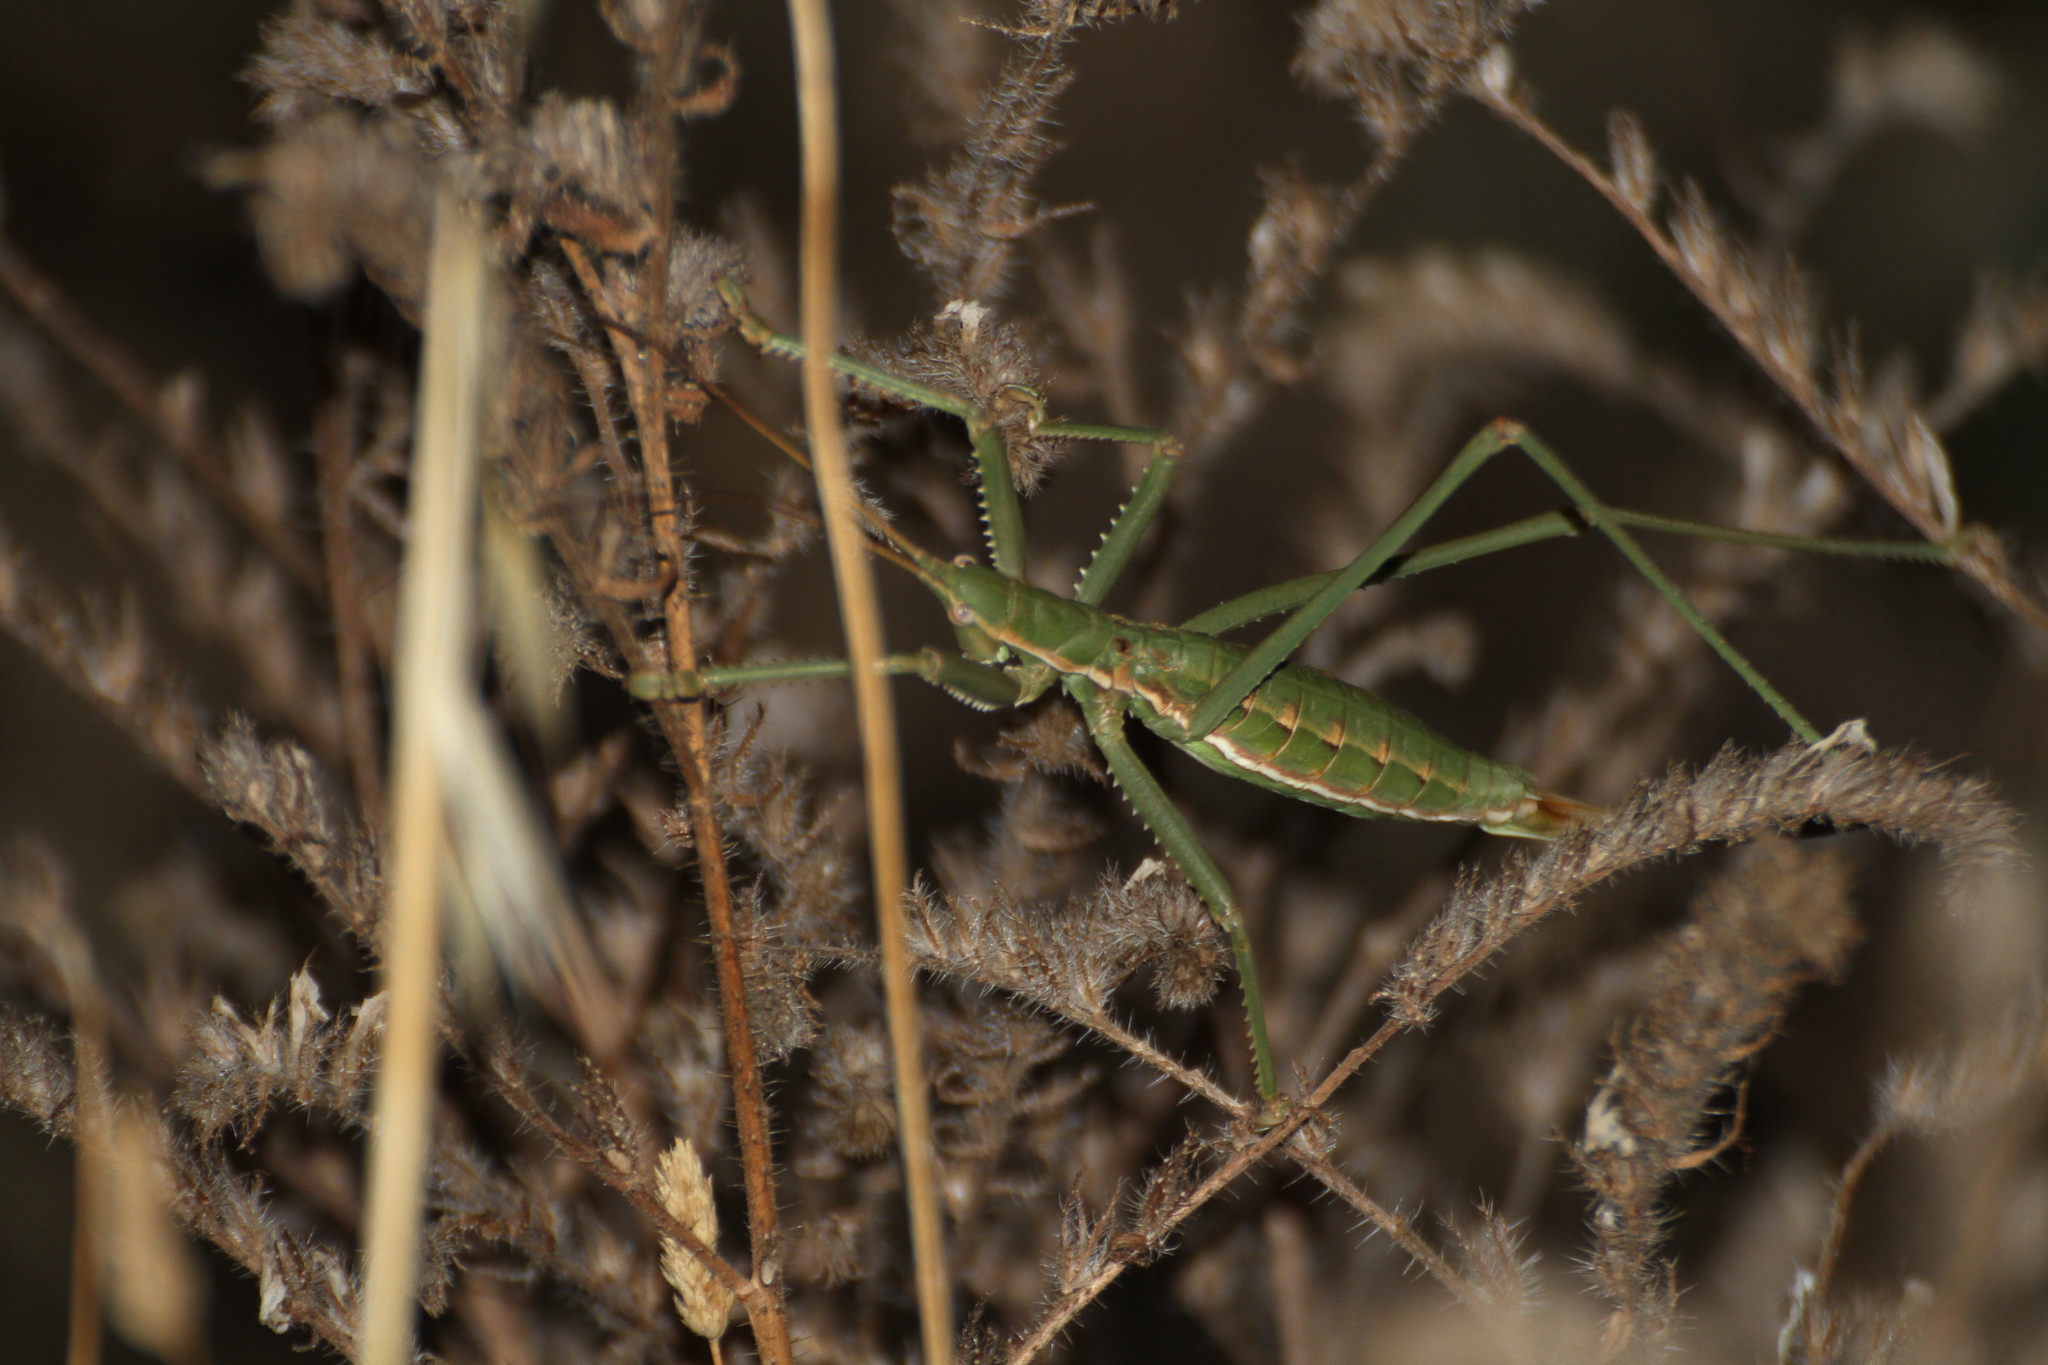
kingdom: Animalia
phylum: Arthropoda
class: Insecta
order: Orthoptera
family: Tettigoniidae
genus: Saga
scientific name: Saga pedo
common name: Common predatory bush-cricket
